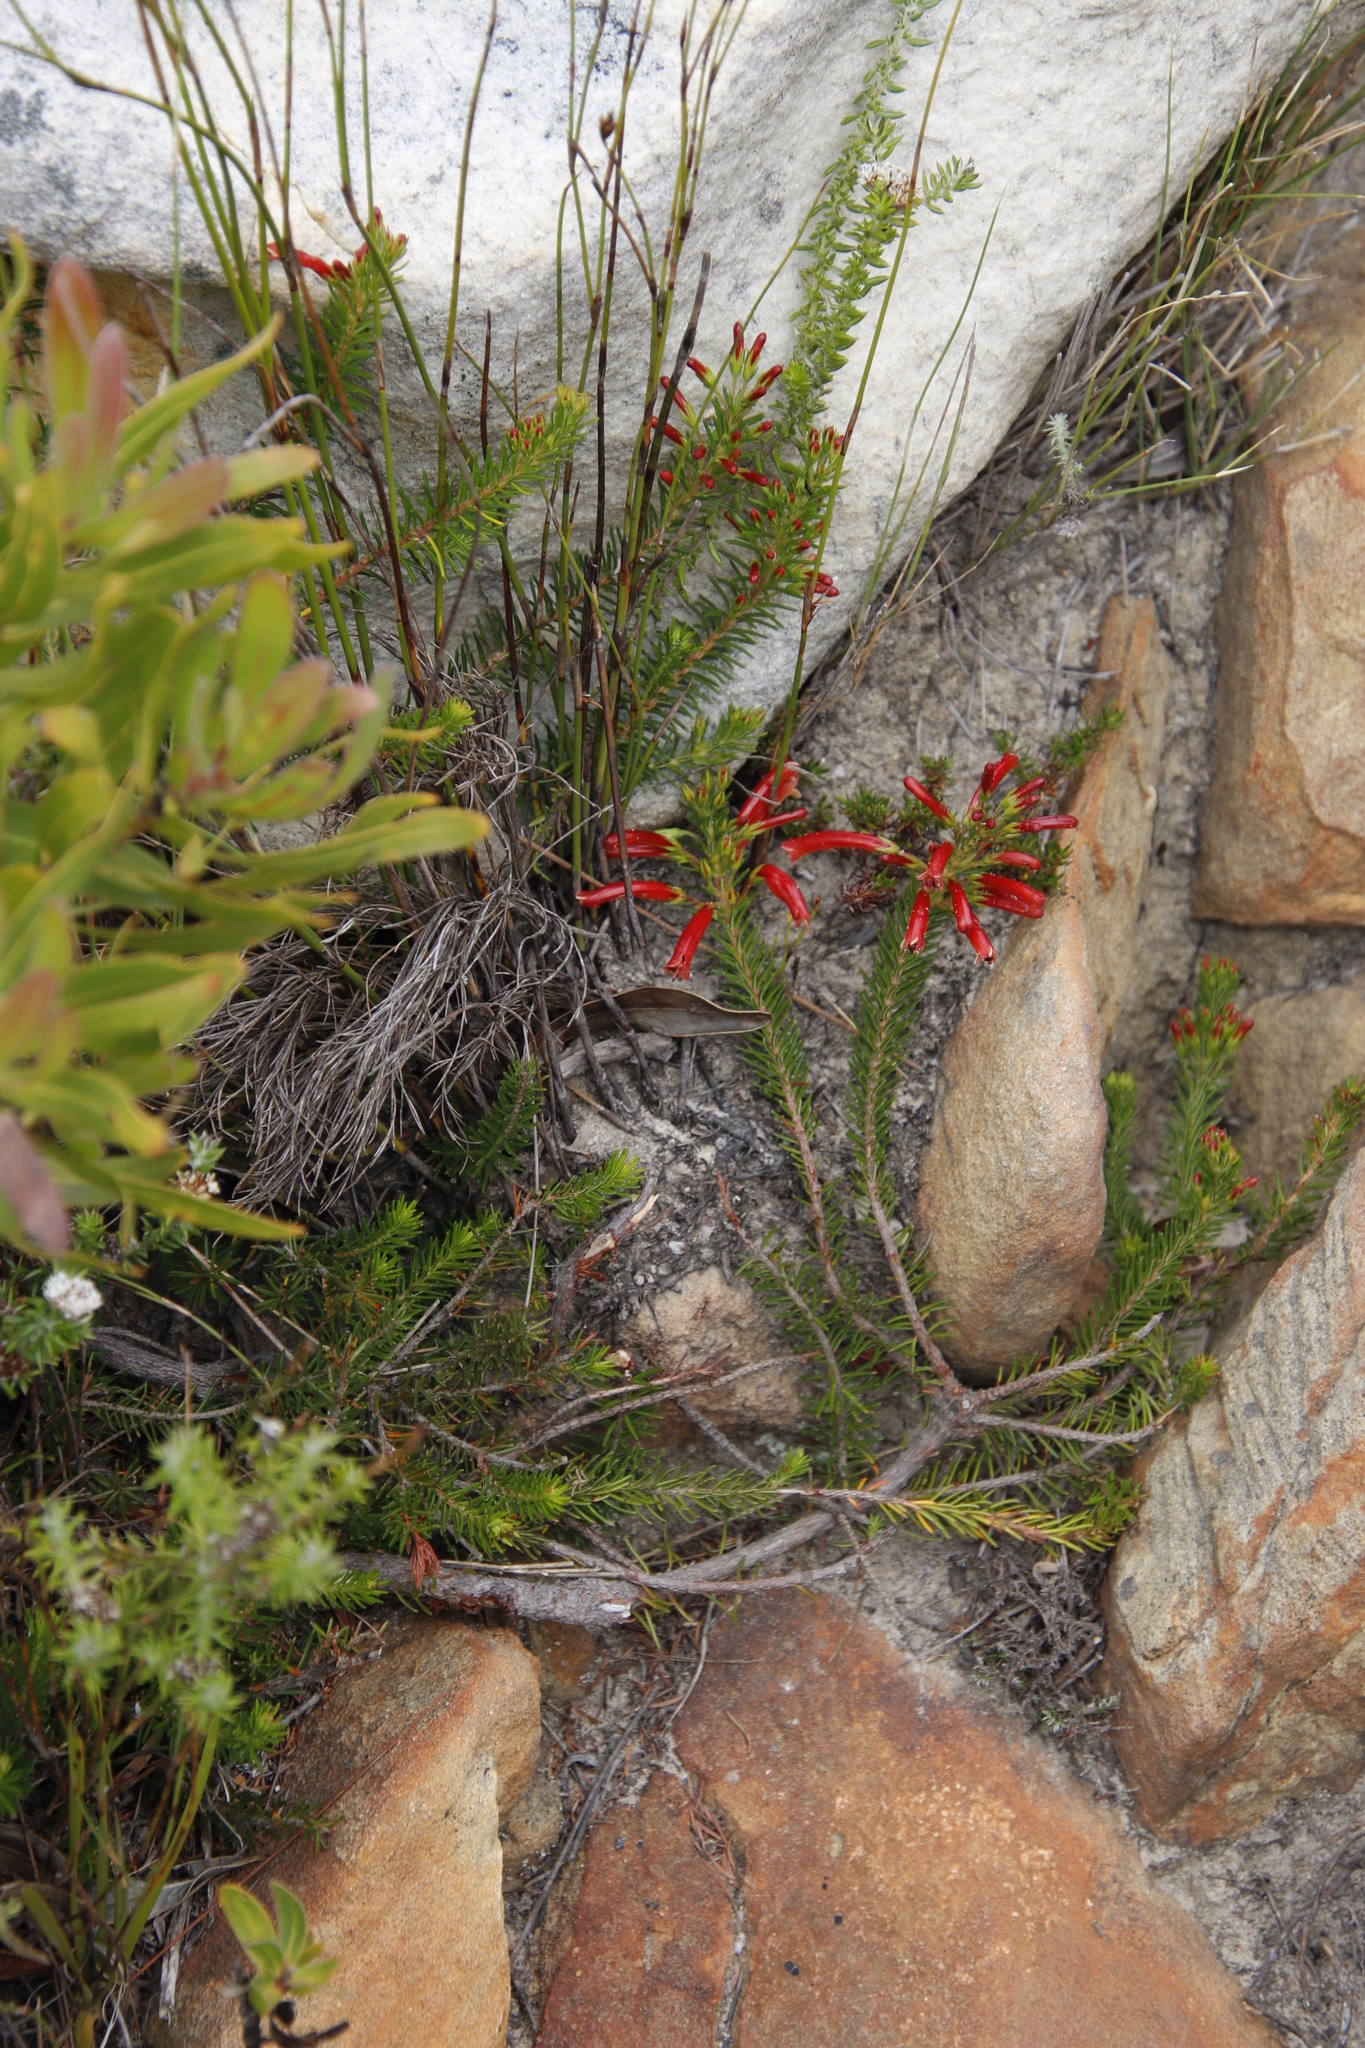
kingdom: Plantae
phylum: Tracheophyta
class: Magnoliopsida
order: Ericales
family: Ericaceae
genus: Erica
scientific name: Erica nevillei
